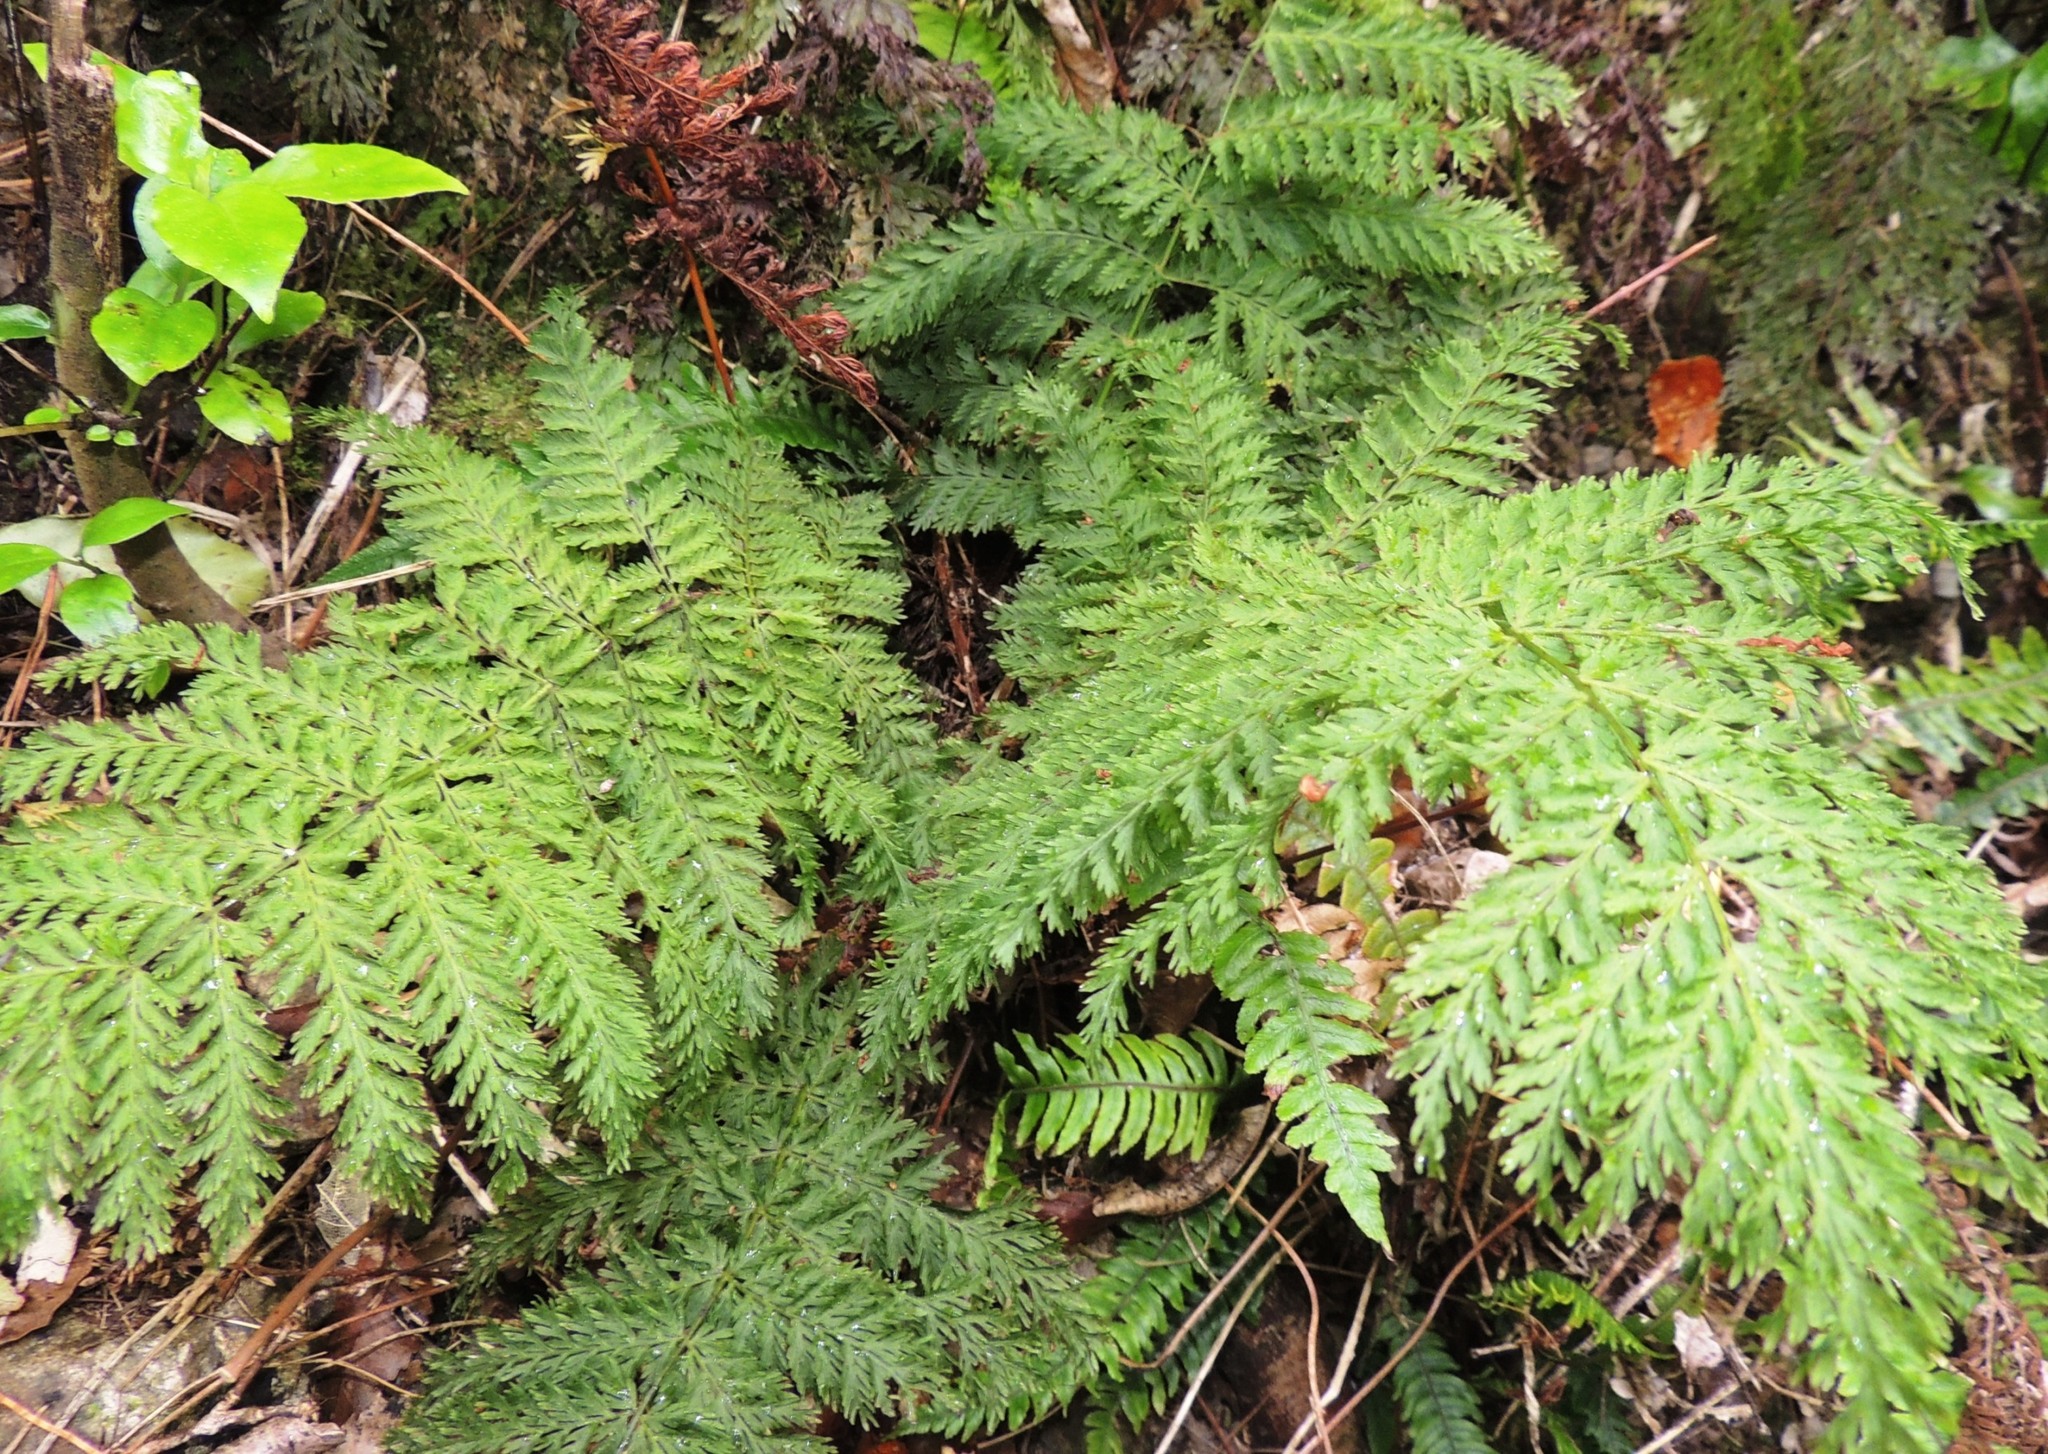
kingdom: Plantae
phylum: Tracheophyta
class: Polypodiopsida
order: Osmundales
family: Osmundaceae
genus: Leptopteris
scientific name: Leptopteris hymenophylloides
